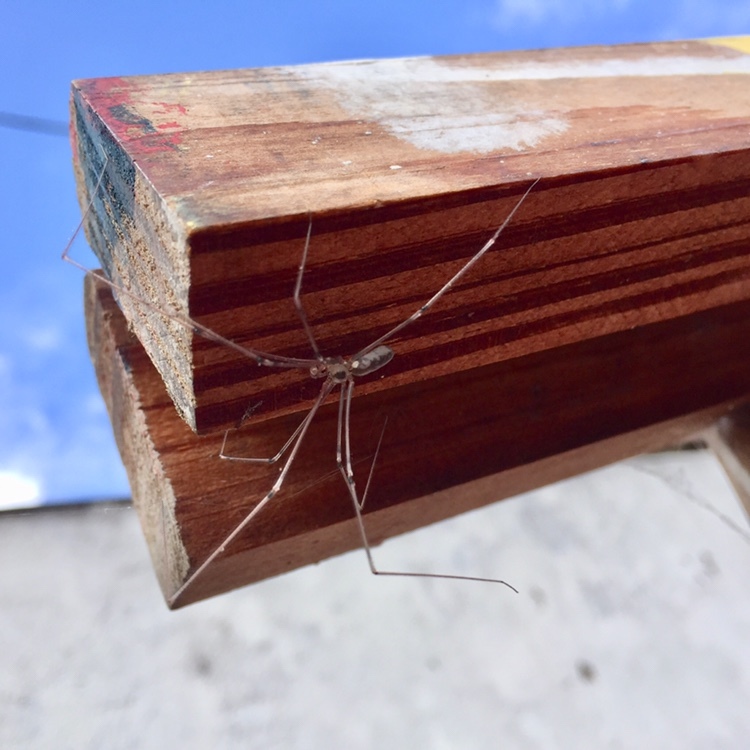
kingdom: Animalia
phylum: Arthropoda
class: Arachnida
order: Araneae
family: Pholcidae
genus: Pholcus
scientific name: Pholcus phalangioides
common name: Longbodied cellar spider
